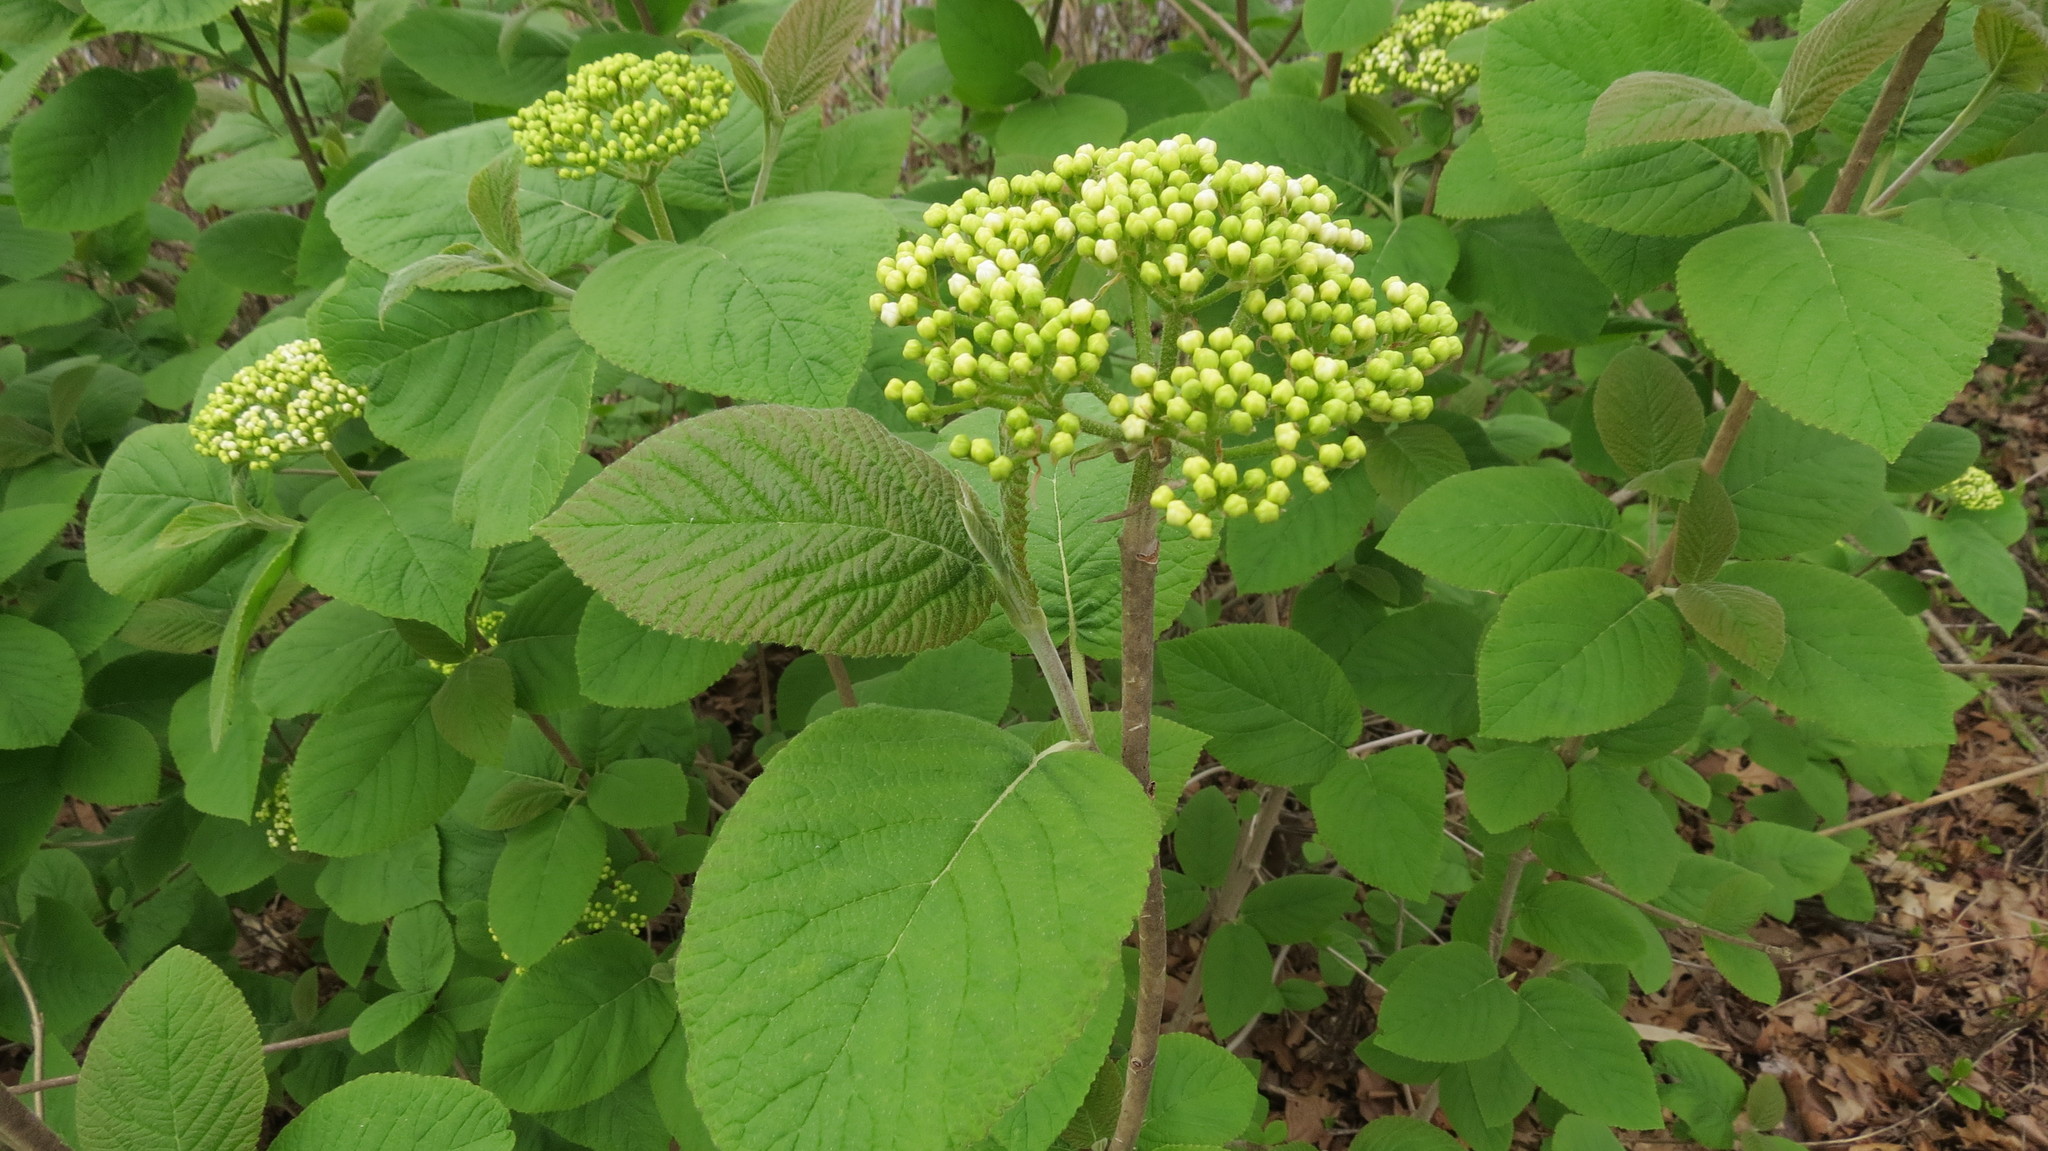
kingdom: Plantae
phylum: Tracheophyta
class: Magnoliopsida
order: Dipsacales
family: Viburnaceae
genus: Viburnum
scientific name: Viburnum lantana
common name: Wayfaring tree
